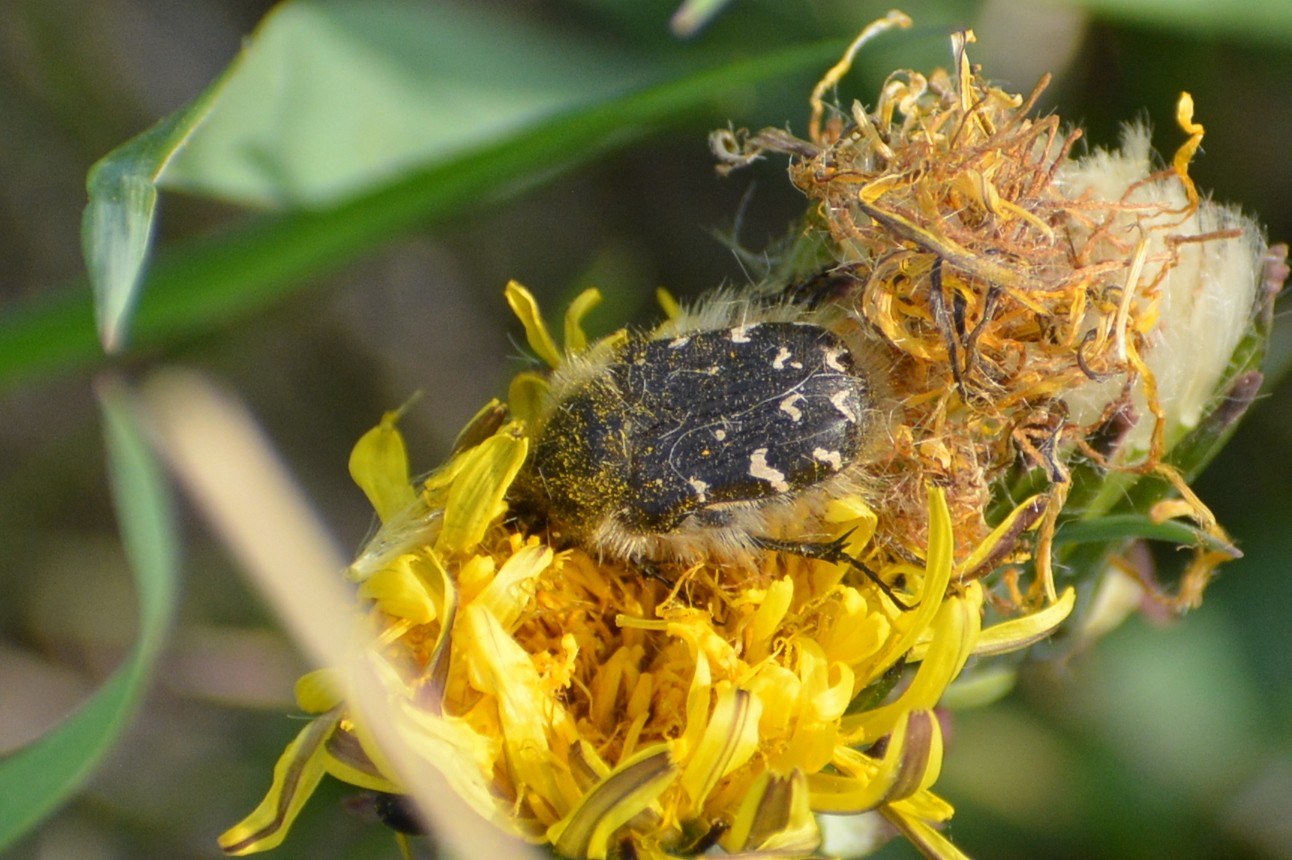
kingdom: Animalia
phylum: Arthropoda
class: Insecta
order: Coleoptera
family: Scarabaeidae
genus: Tropinota
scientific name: Tropinota hirta
